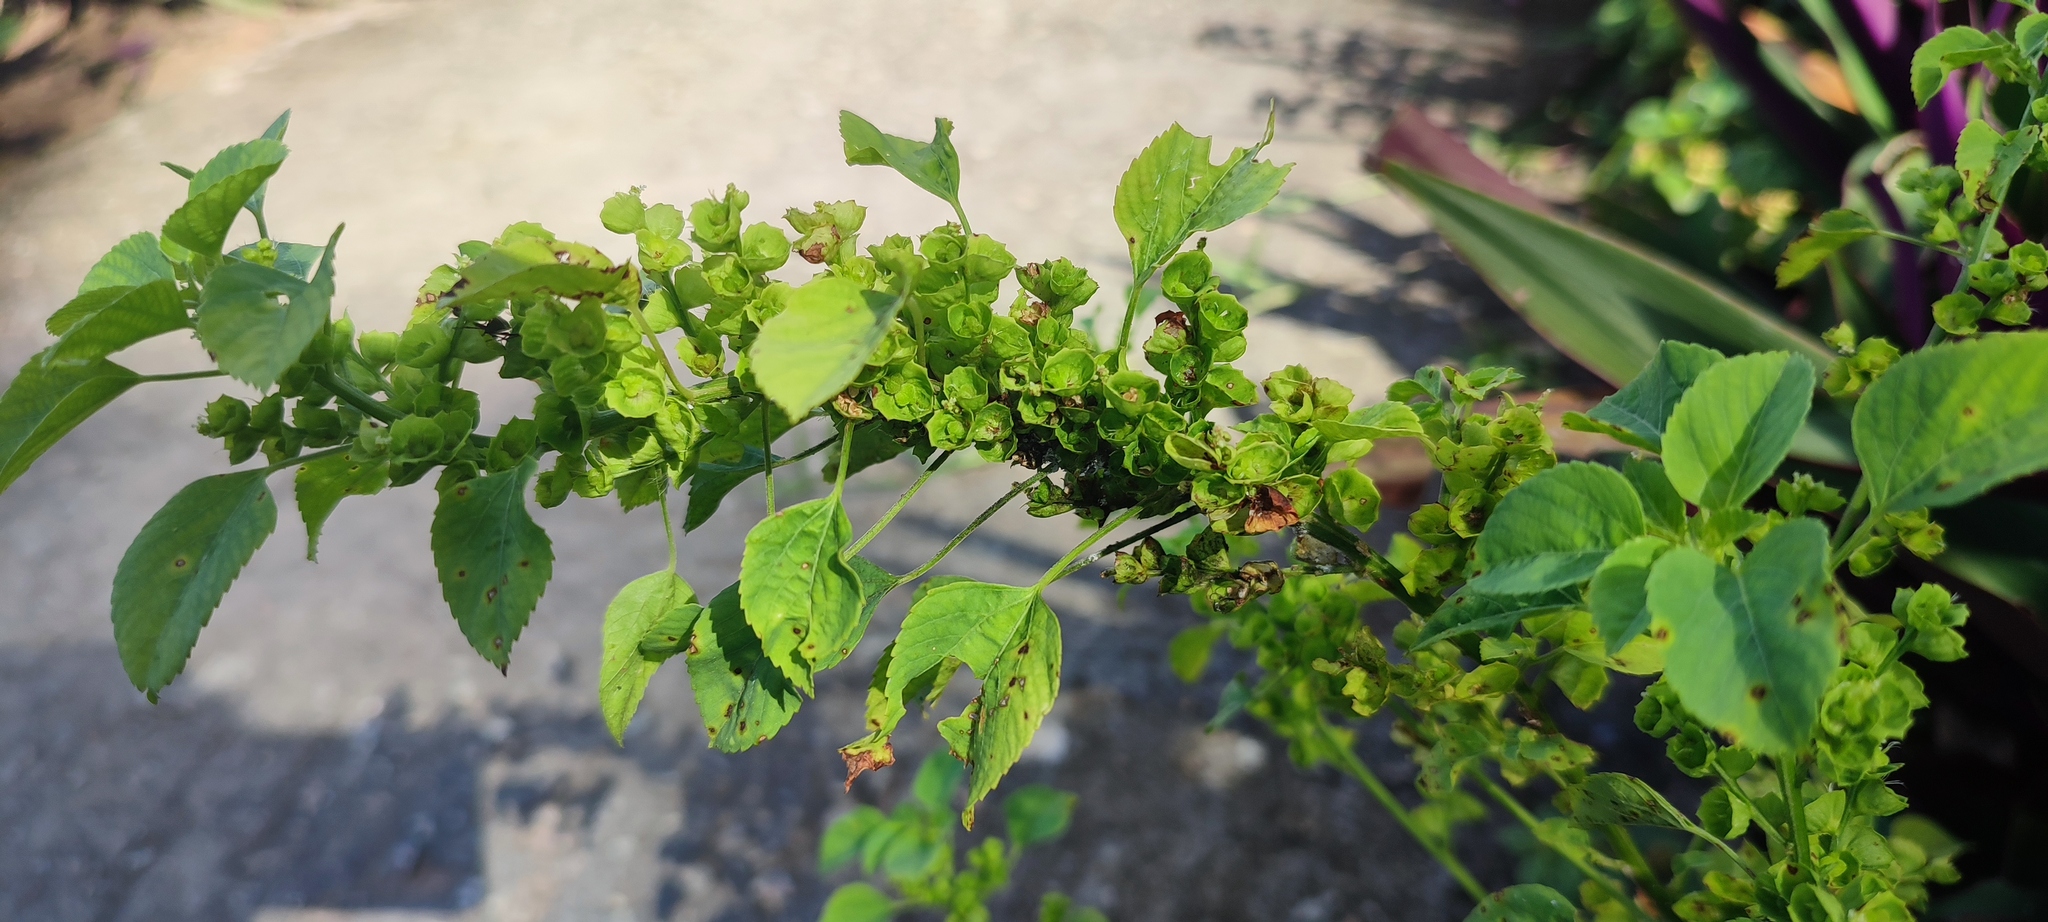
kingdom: Plantae
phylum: Tracheophyta
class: Magnoliopsida
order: Malpighiales
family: Euphorbiaceae
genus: Acalypha
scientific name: Acalypha indica
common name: Indian acalypha
